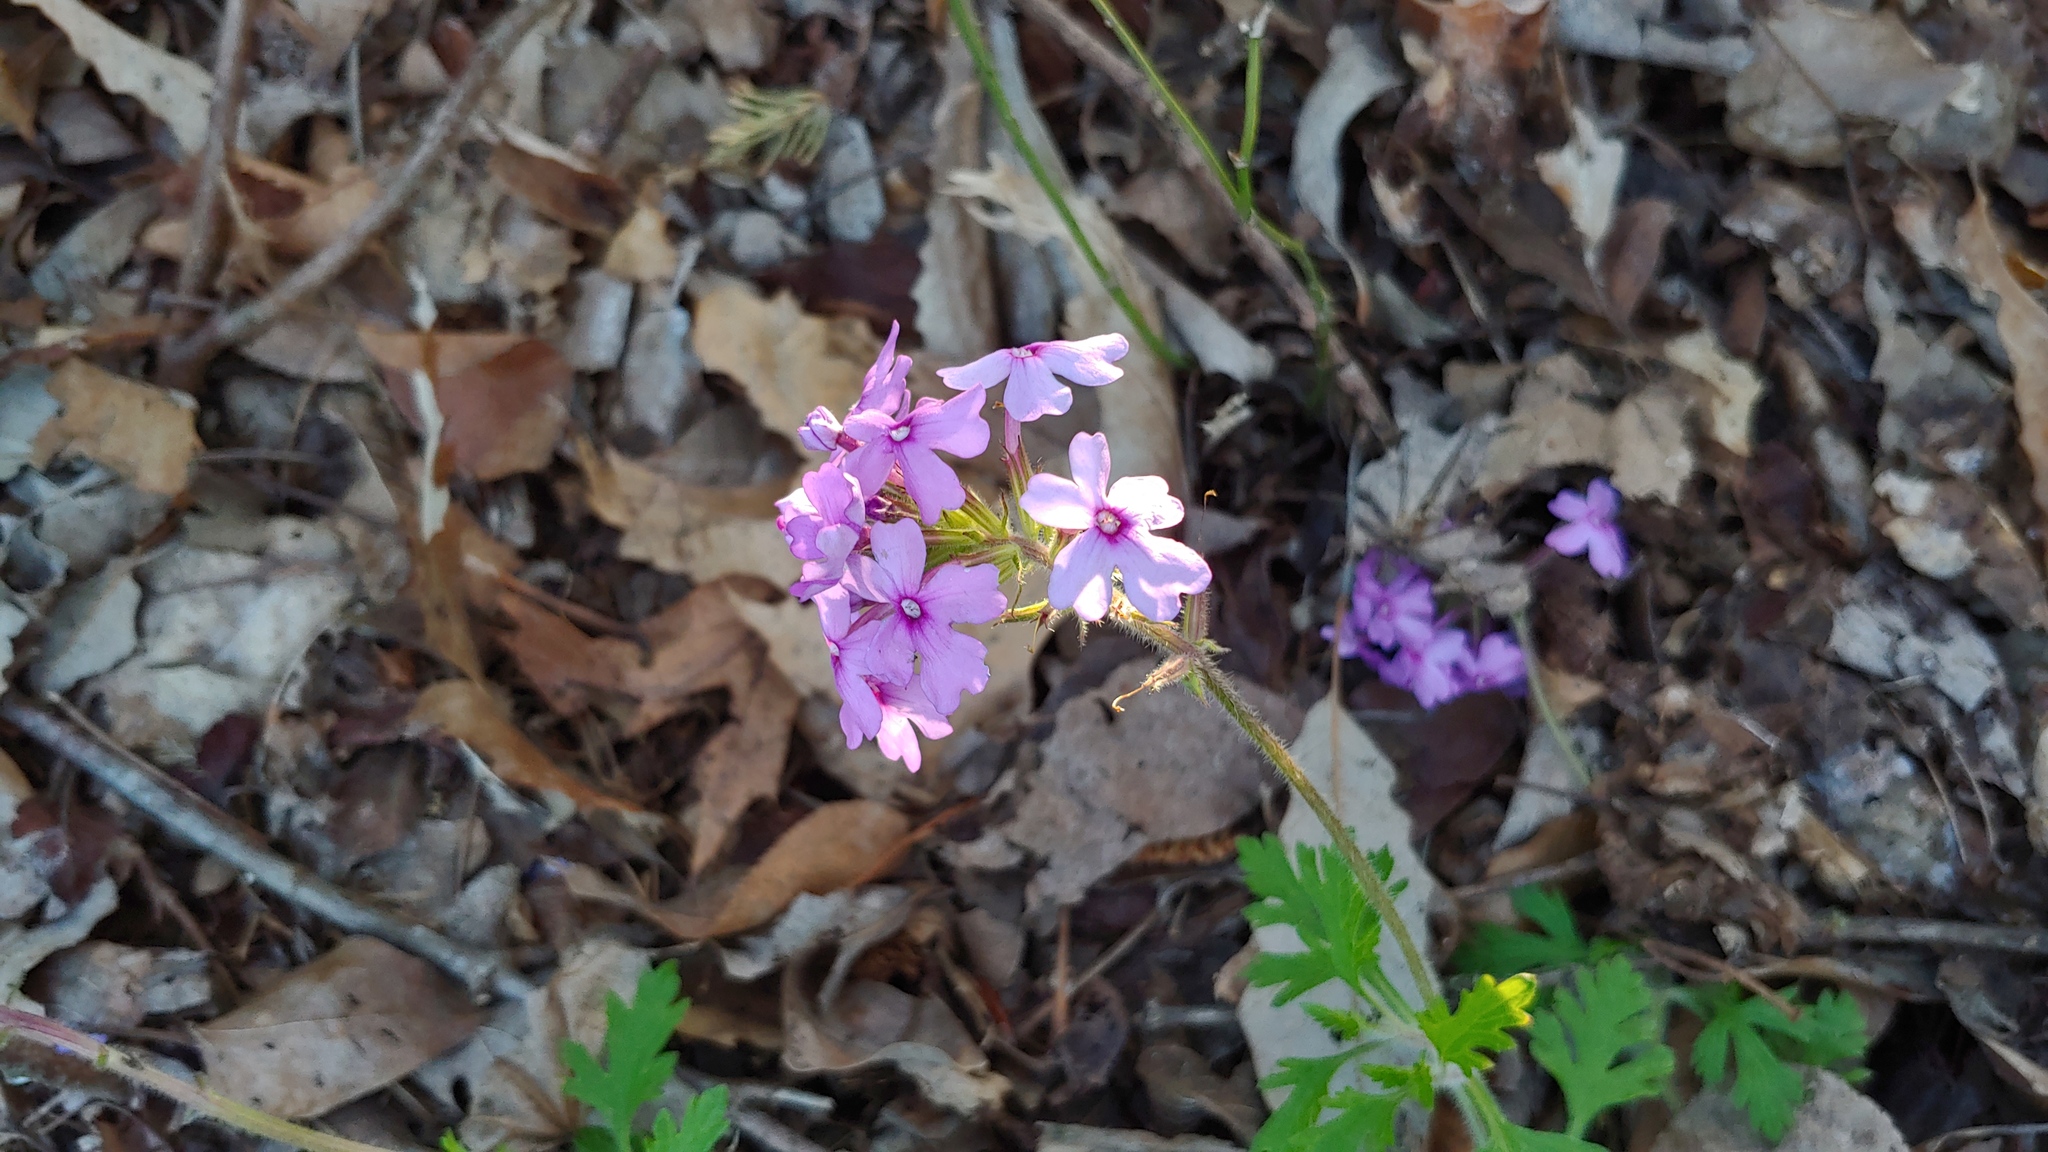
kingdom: Plantae
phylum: Tracheophyta
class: Magnoliopsida
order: Lamiales
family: Verbenaceae
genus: Verbena
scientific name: Verbena canadensis
